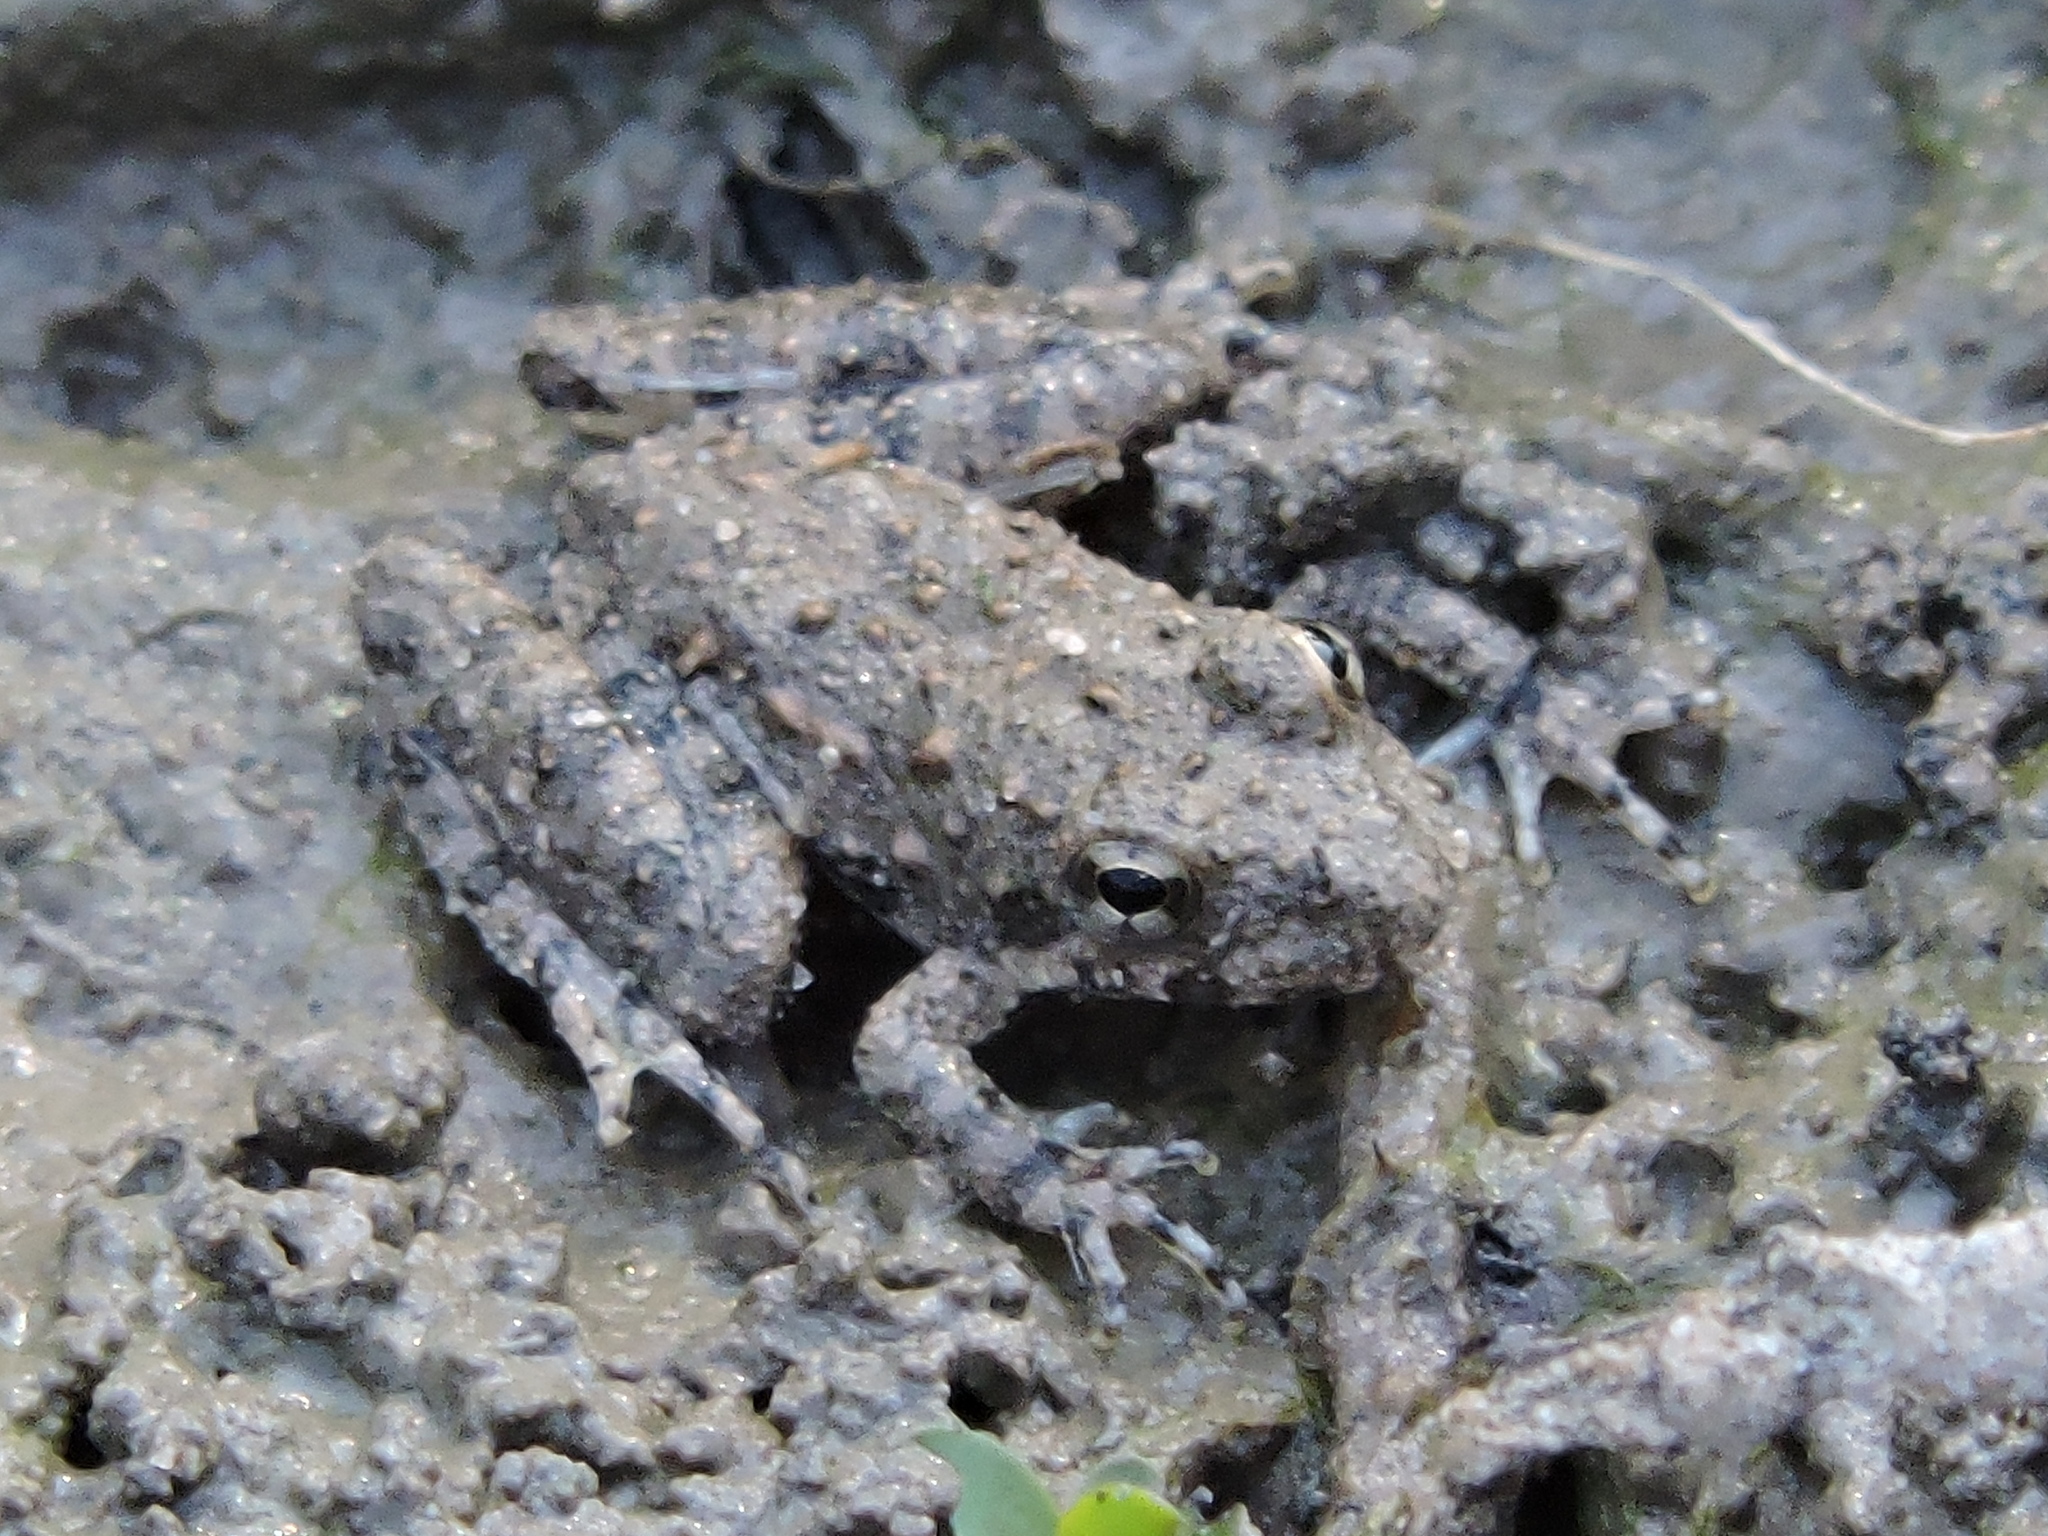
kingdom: Animalia
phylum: Chordata
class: Amphibia
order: Anura
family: Hylidae
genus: Acris
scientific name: Acris blanchardi
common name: Blanchard's cricket frog
